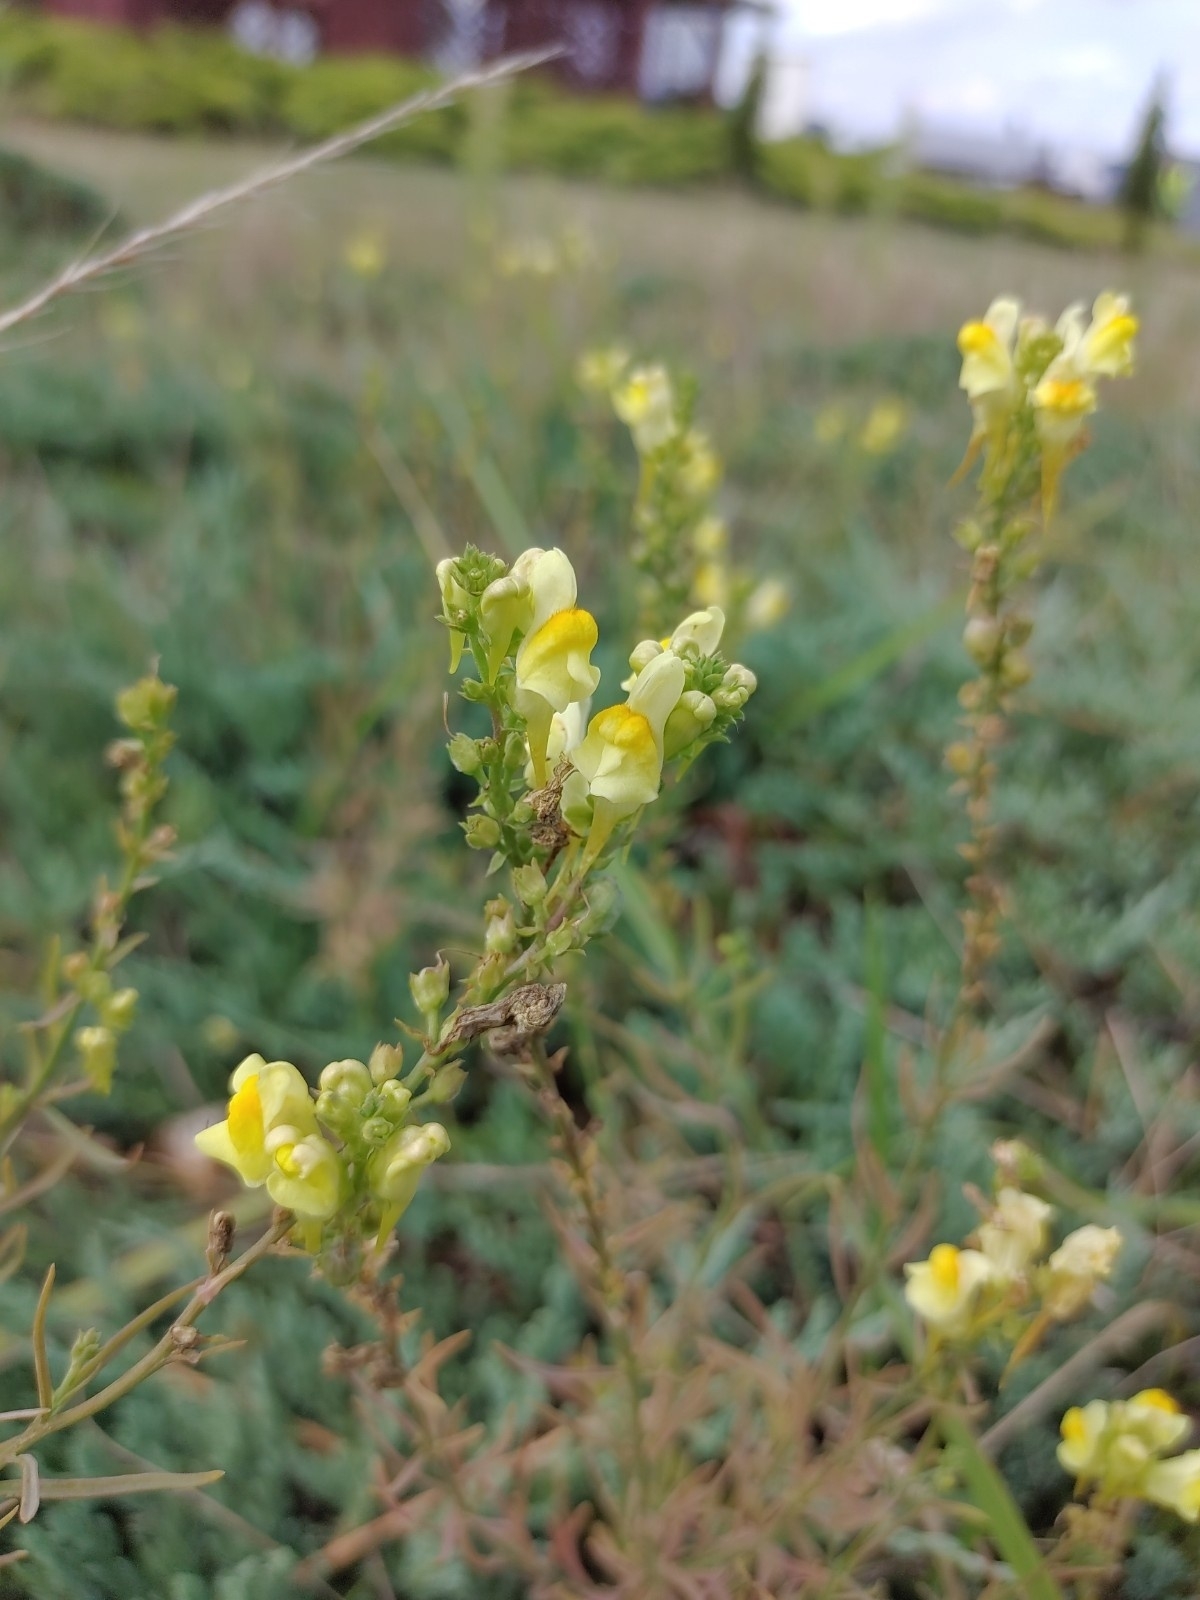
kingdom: Plantae
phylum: Tracheophyta
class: Magnoliopsida
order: Lamiales
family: Plantaginaceae
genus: Linaria
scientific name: Linaria vulgaris
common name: Butter and eggs
